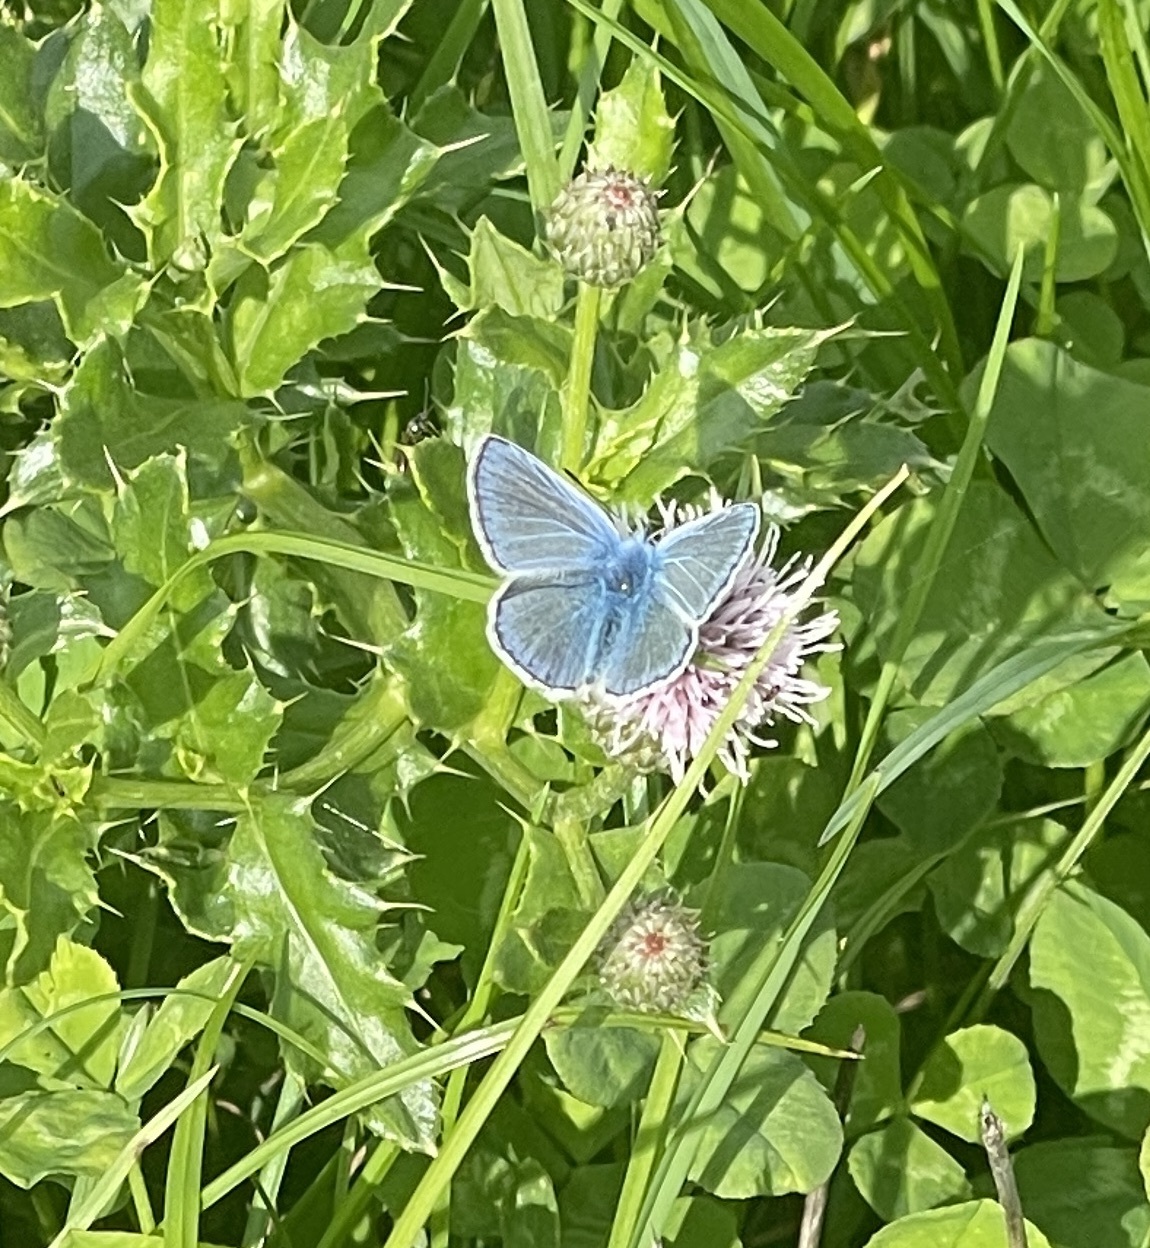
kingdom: Animalia
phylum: Arthropoda
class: Insecta
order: Lepidoptera
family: Lycaenidae
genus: Polyommatus
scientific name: Polyommatus icarus
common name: Common blue
